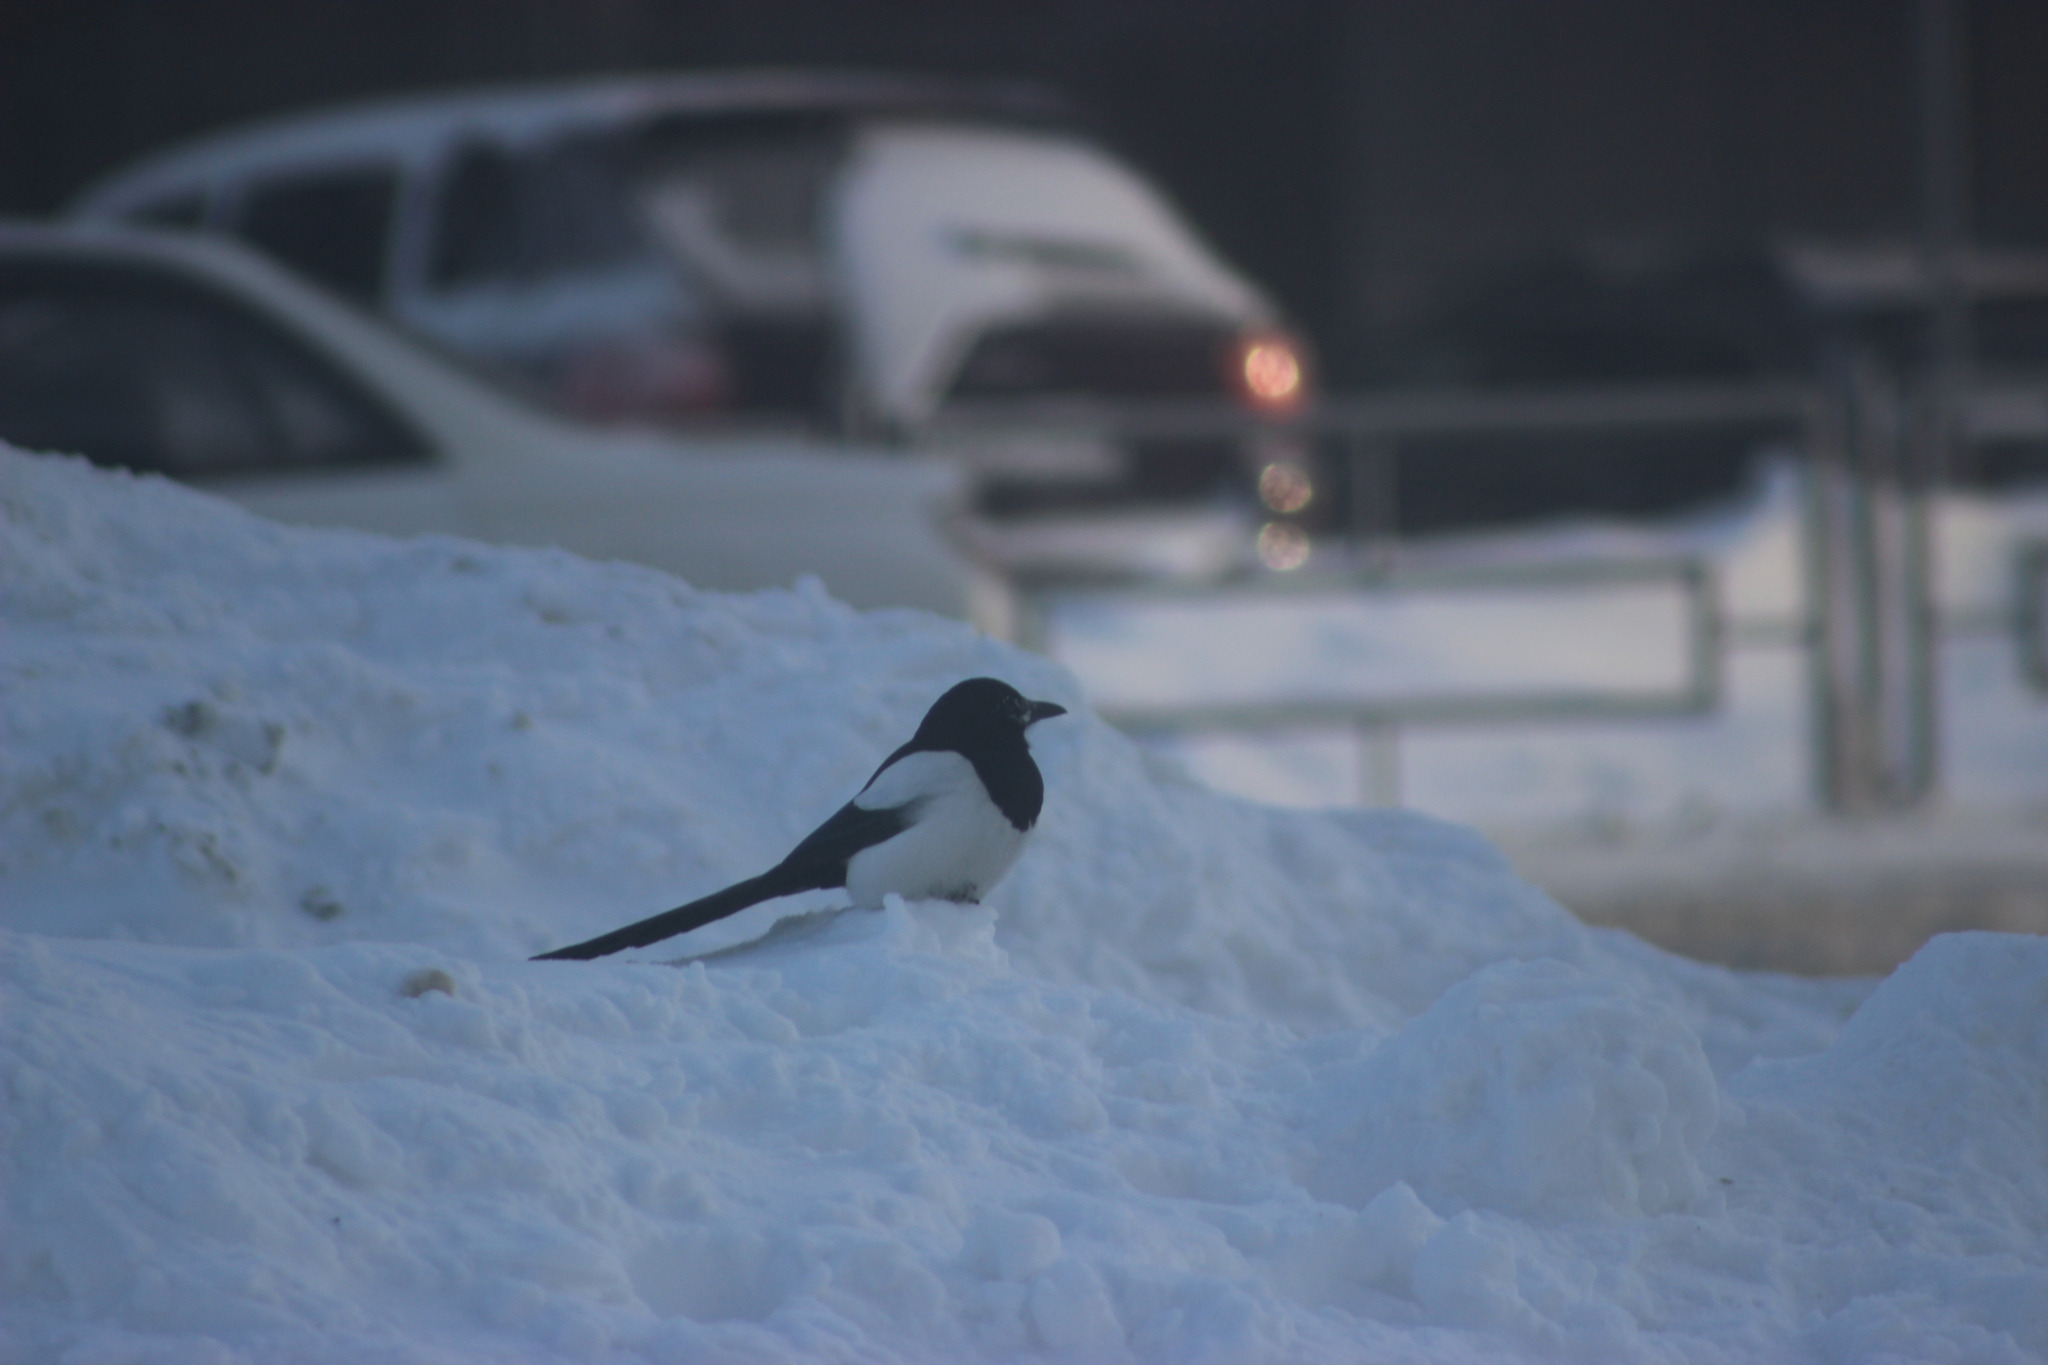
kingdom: Animalia
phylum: Chordata
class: Aves
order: Passeriformes
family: Corvidae
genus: Pica
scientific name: Pica pica
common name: Eurasian magpie
